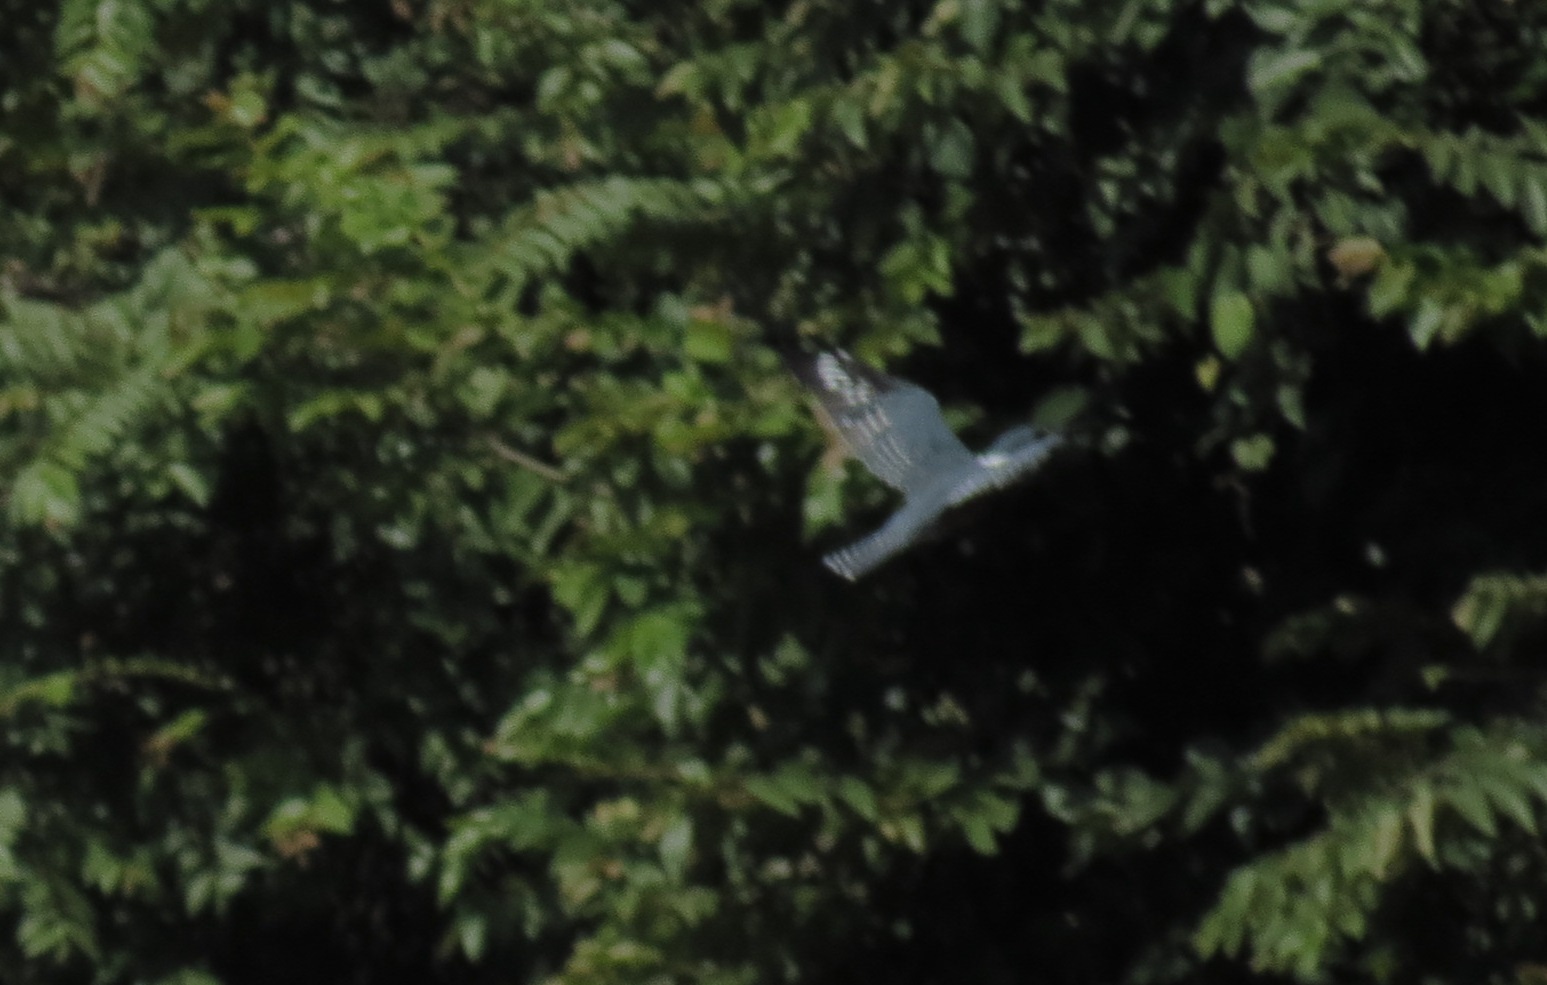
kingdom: Animalia
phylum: Chordata
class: Aves
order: Coraciiformes
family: Alcedinidae
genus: Megaceryle
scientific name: Megaceryle torquata
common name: Ringed kingfisher
